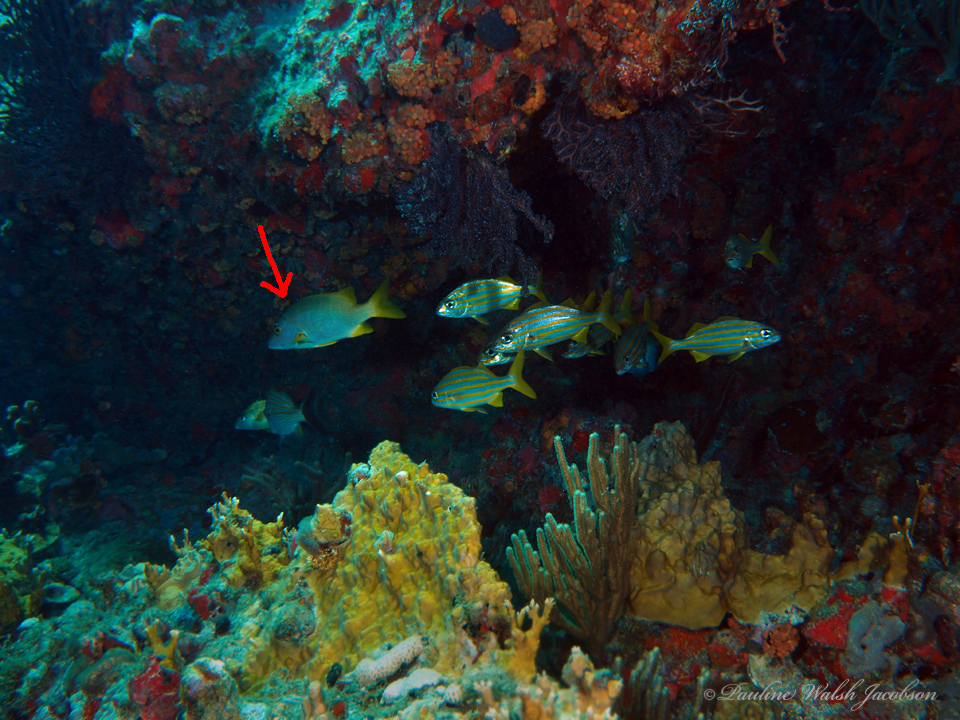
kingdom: Animalia
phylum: Chordata
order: Perciformes
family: Lutjanidae
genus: Lutjanus
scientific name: Lutjanus apodus
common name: Schoolmaster
